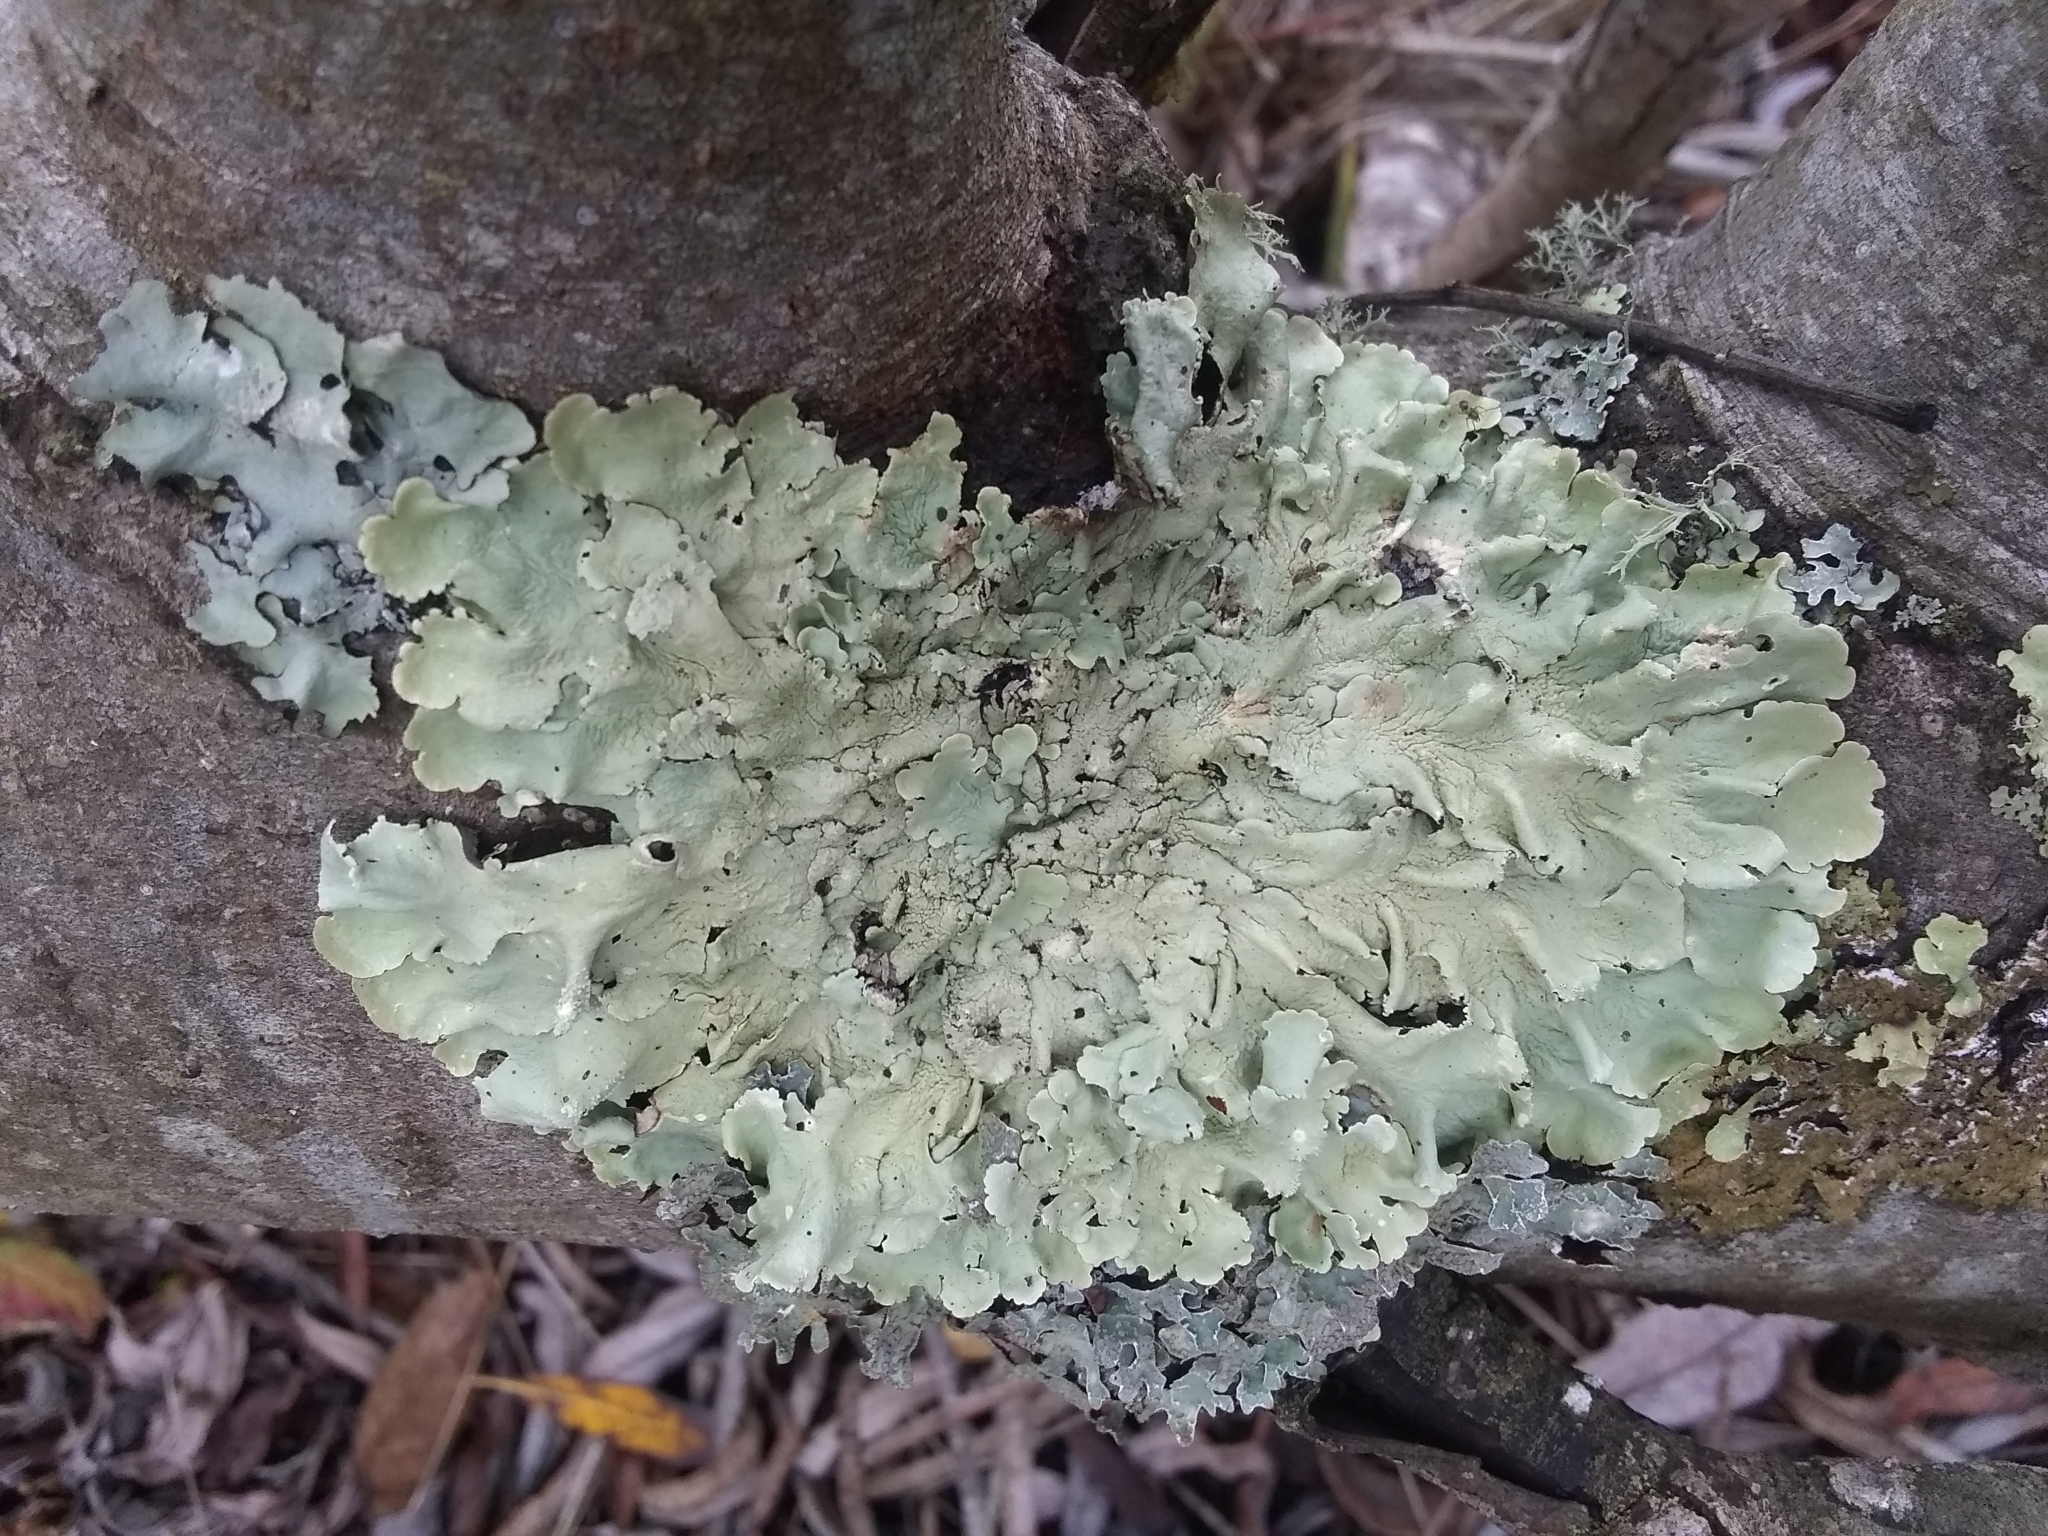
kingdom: Fungi
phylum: Ascomycota
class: Lecanoromycetes
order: Lecanorales
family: Parmeliaceae
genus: Flavoparmelia
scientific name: Flavoparmelia caperata
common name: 40-mile per hour lichen
